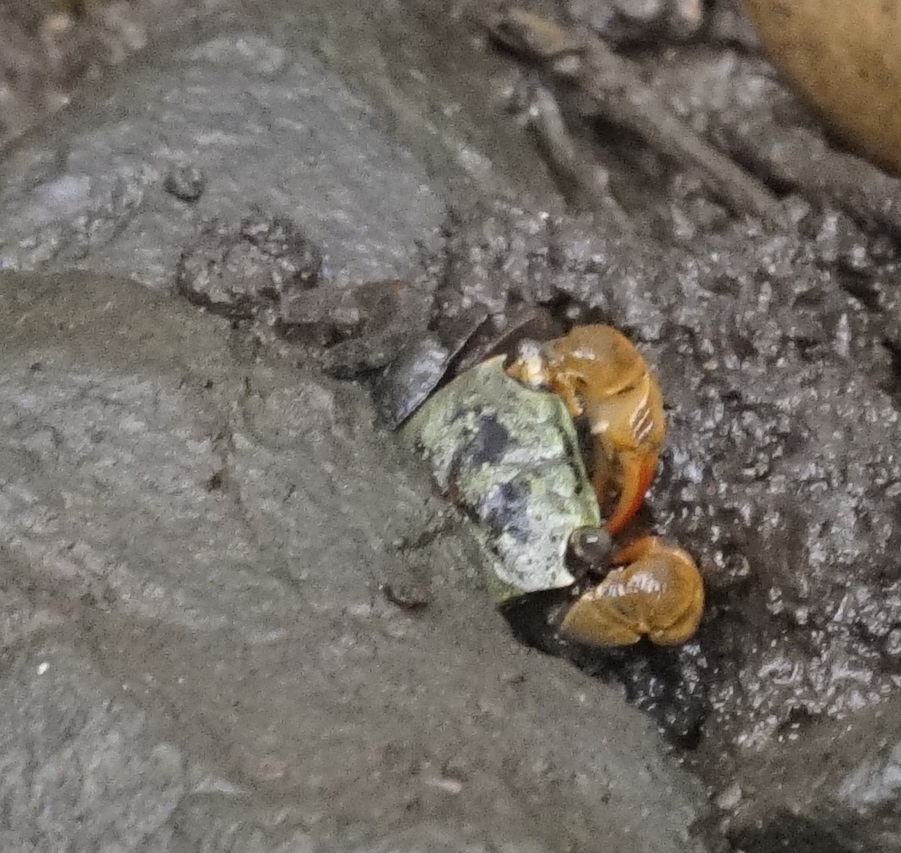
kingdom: Animalia
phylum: Arthropoda
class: Malacostraca
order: Decapoda
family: Sesarmidae
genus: Parasesarma
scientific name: Parasesarma erythodactylum
